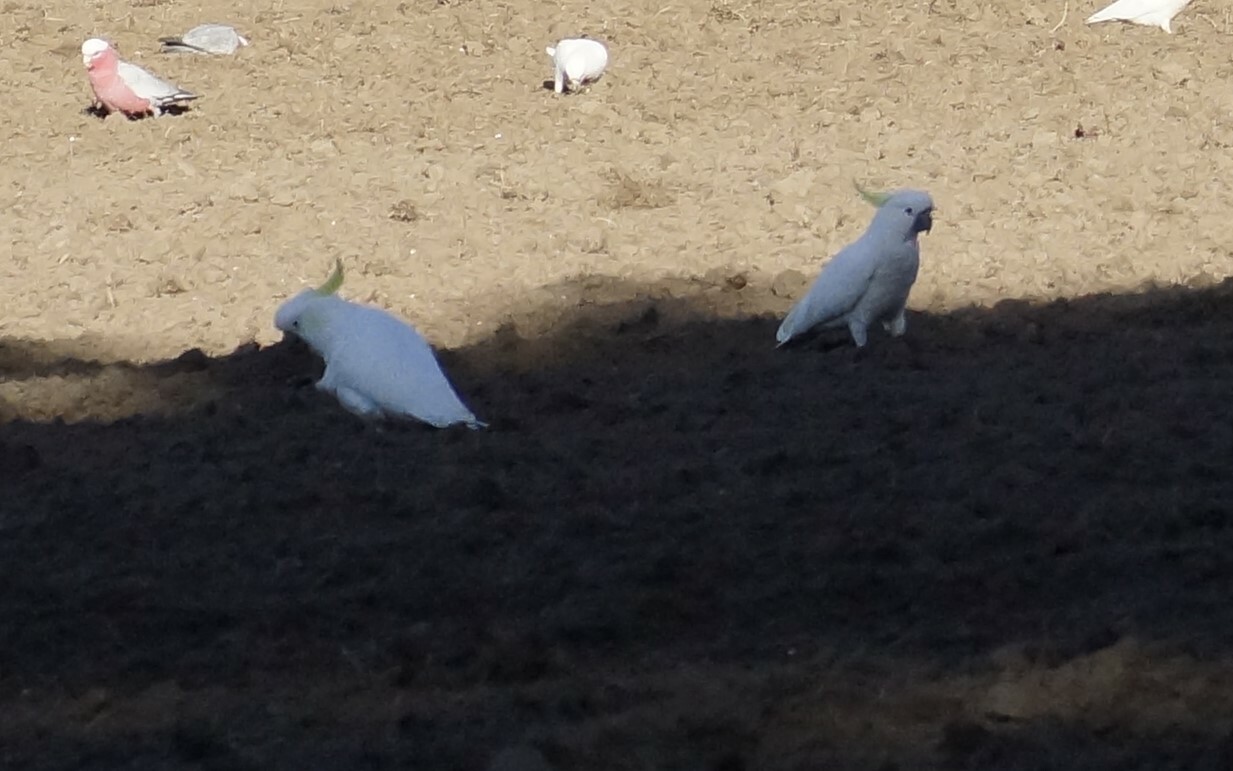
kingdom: Animalia
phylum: Chordata
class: Aves
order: Psittaciformes
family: Psittacidae
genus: Cacatua
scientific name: Cacatua galerita
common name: Sulphur-crested cockatoo
